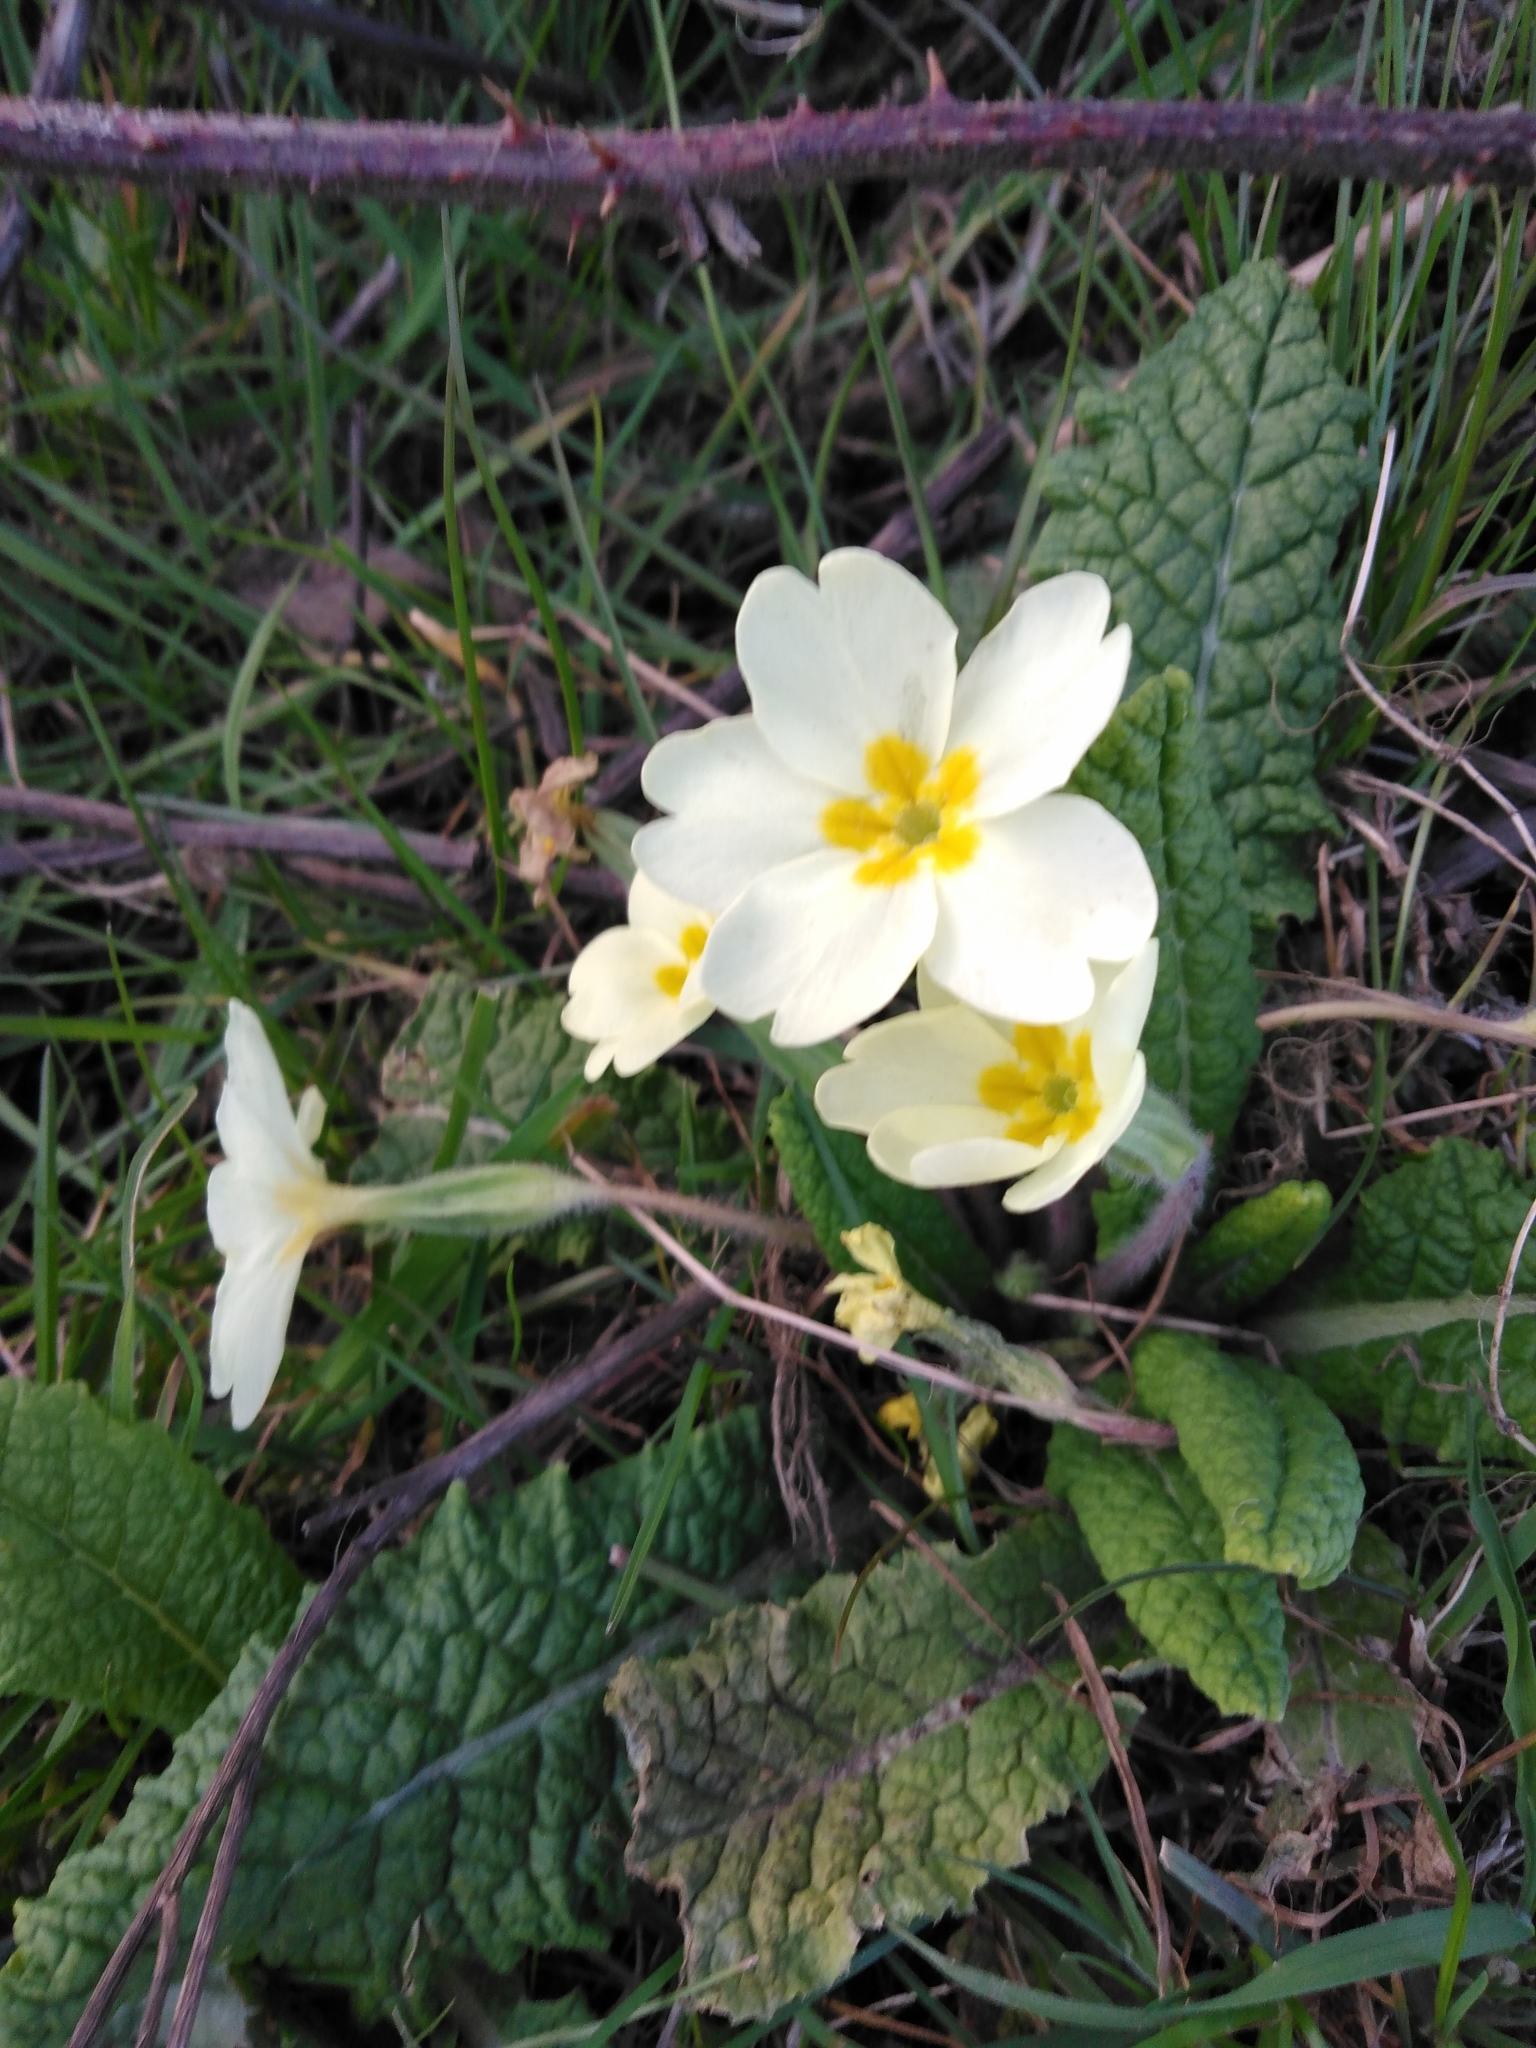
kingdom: Plantae
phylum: Tracheophyta
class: Magnoliopsida
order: Ericales
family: Primulaceae
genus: Primula
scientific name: Primula vulgaris
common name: Primrose
